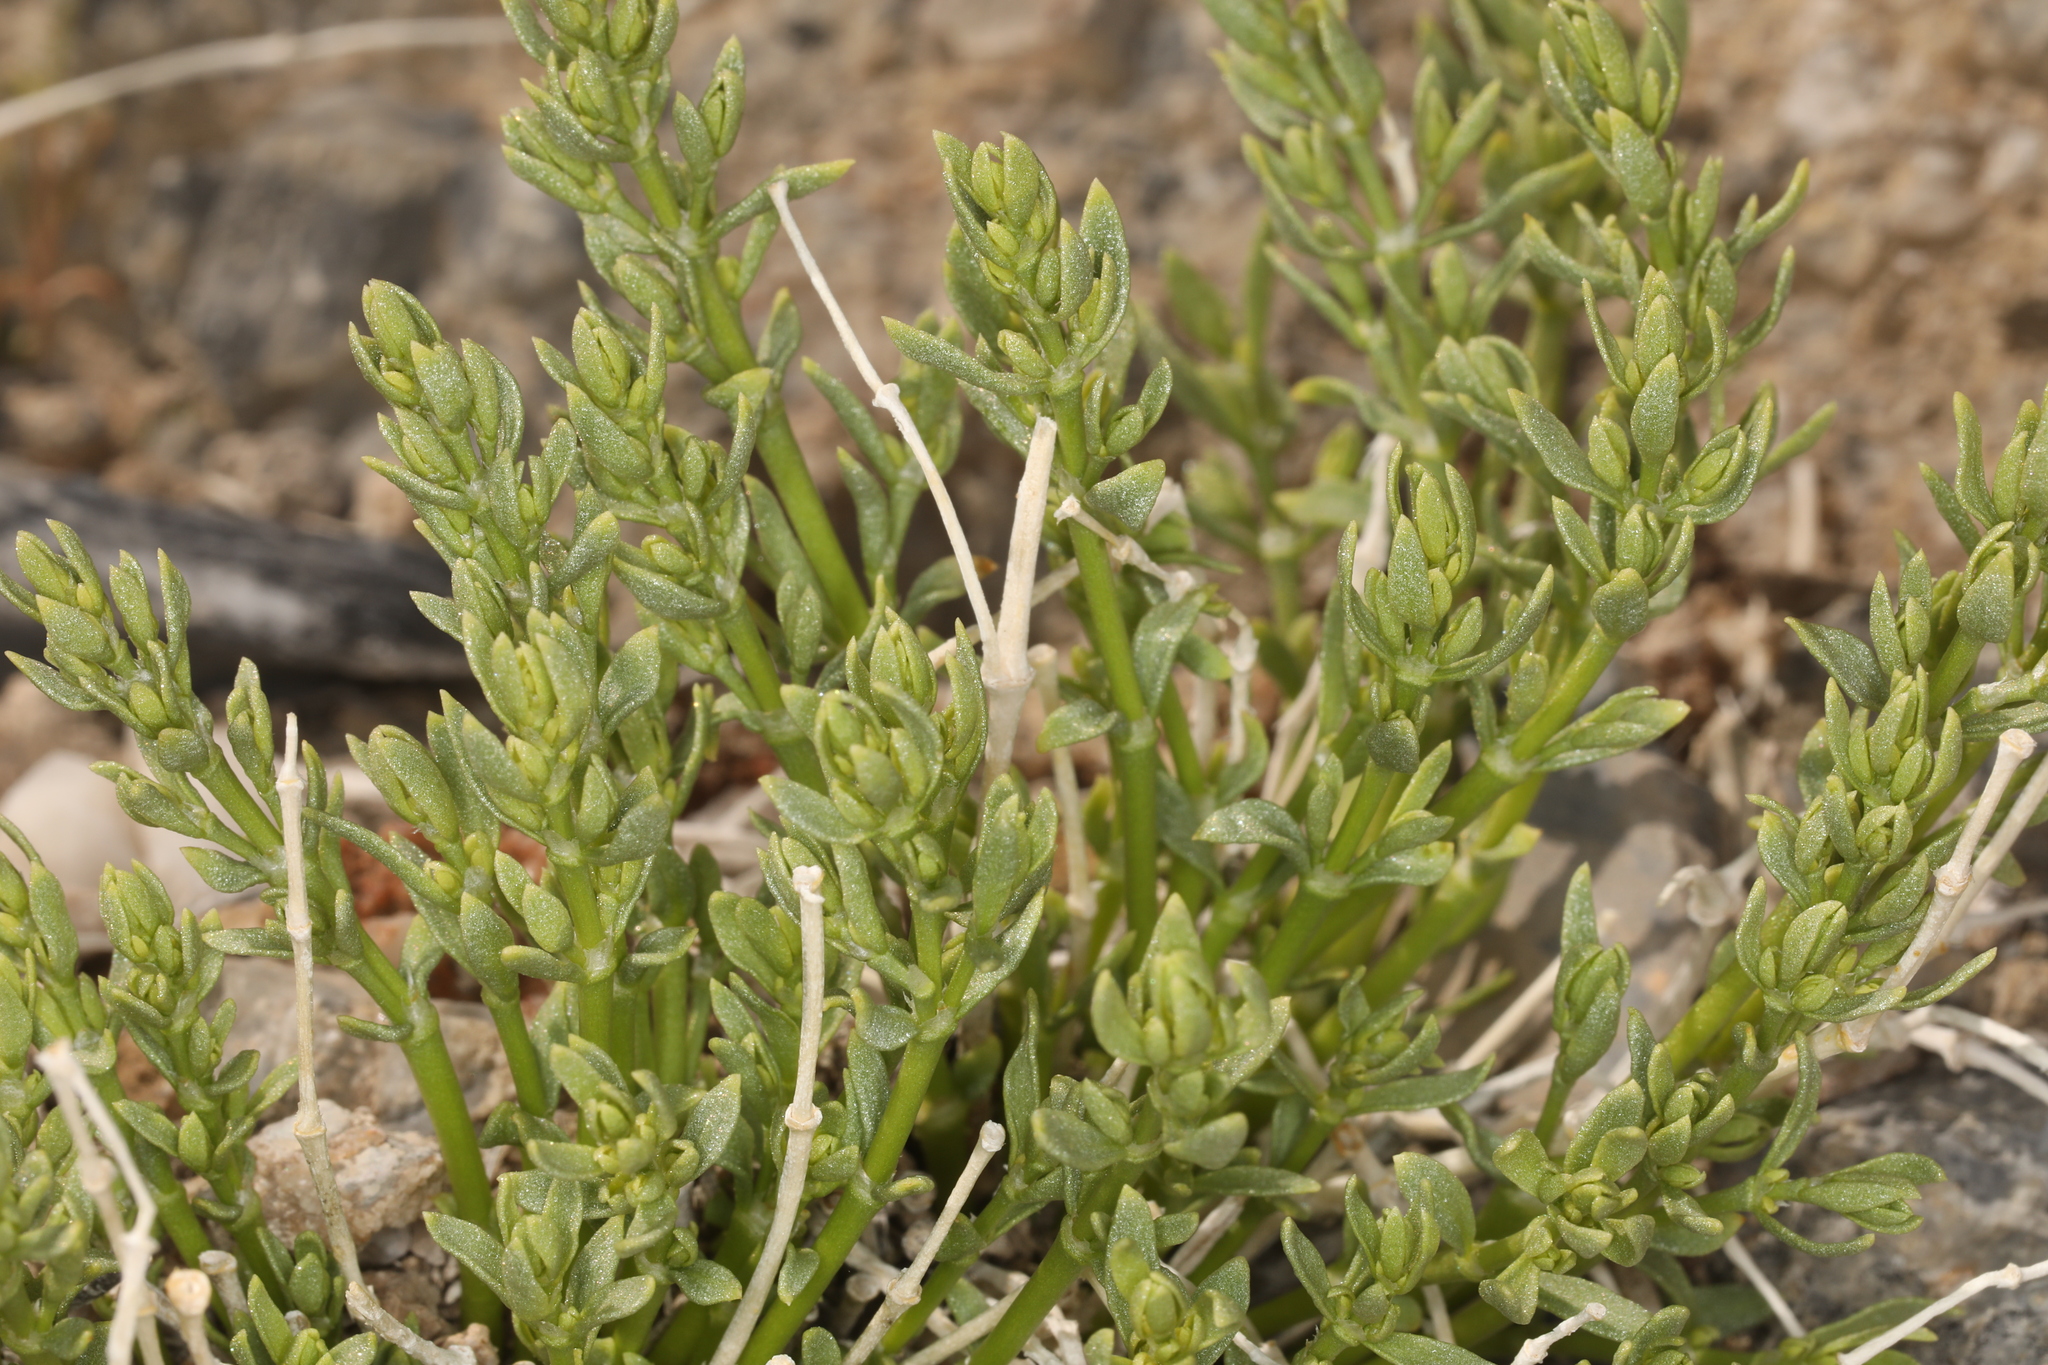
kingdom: Plantae
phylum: Tracheophyta
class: Magnoliopsida
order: Caryophyllales
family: Caryophyllaceae
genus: Scopulophila
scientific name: Scopulophila rixfordii
